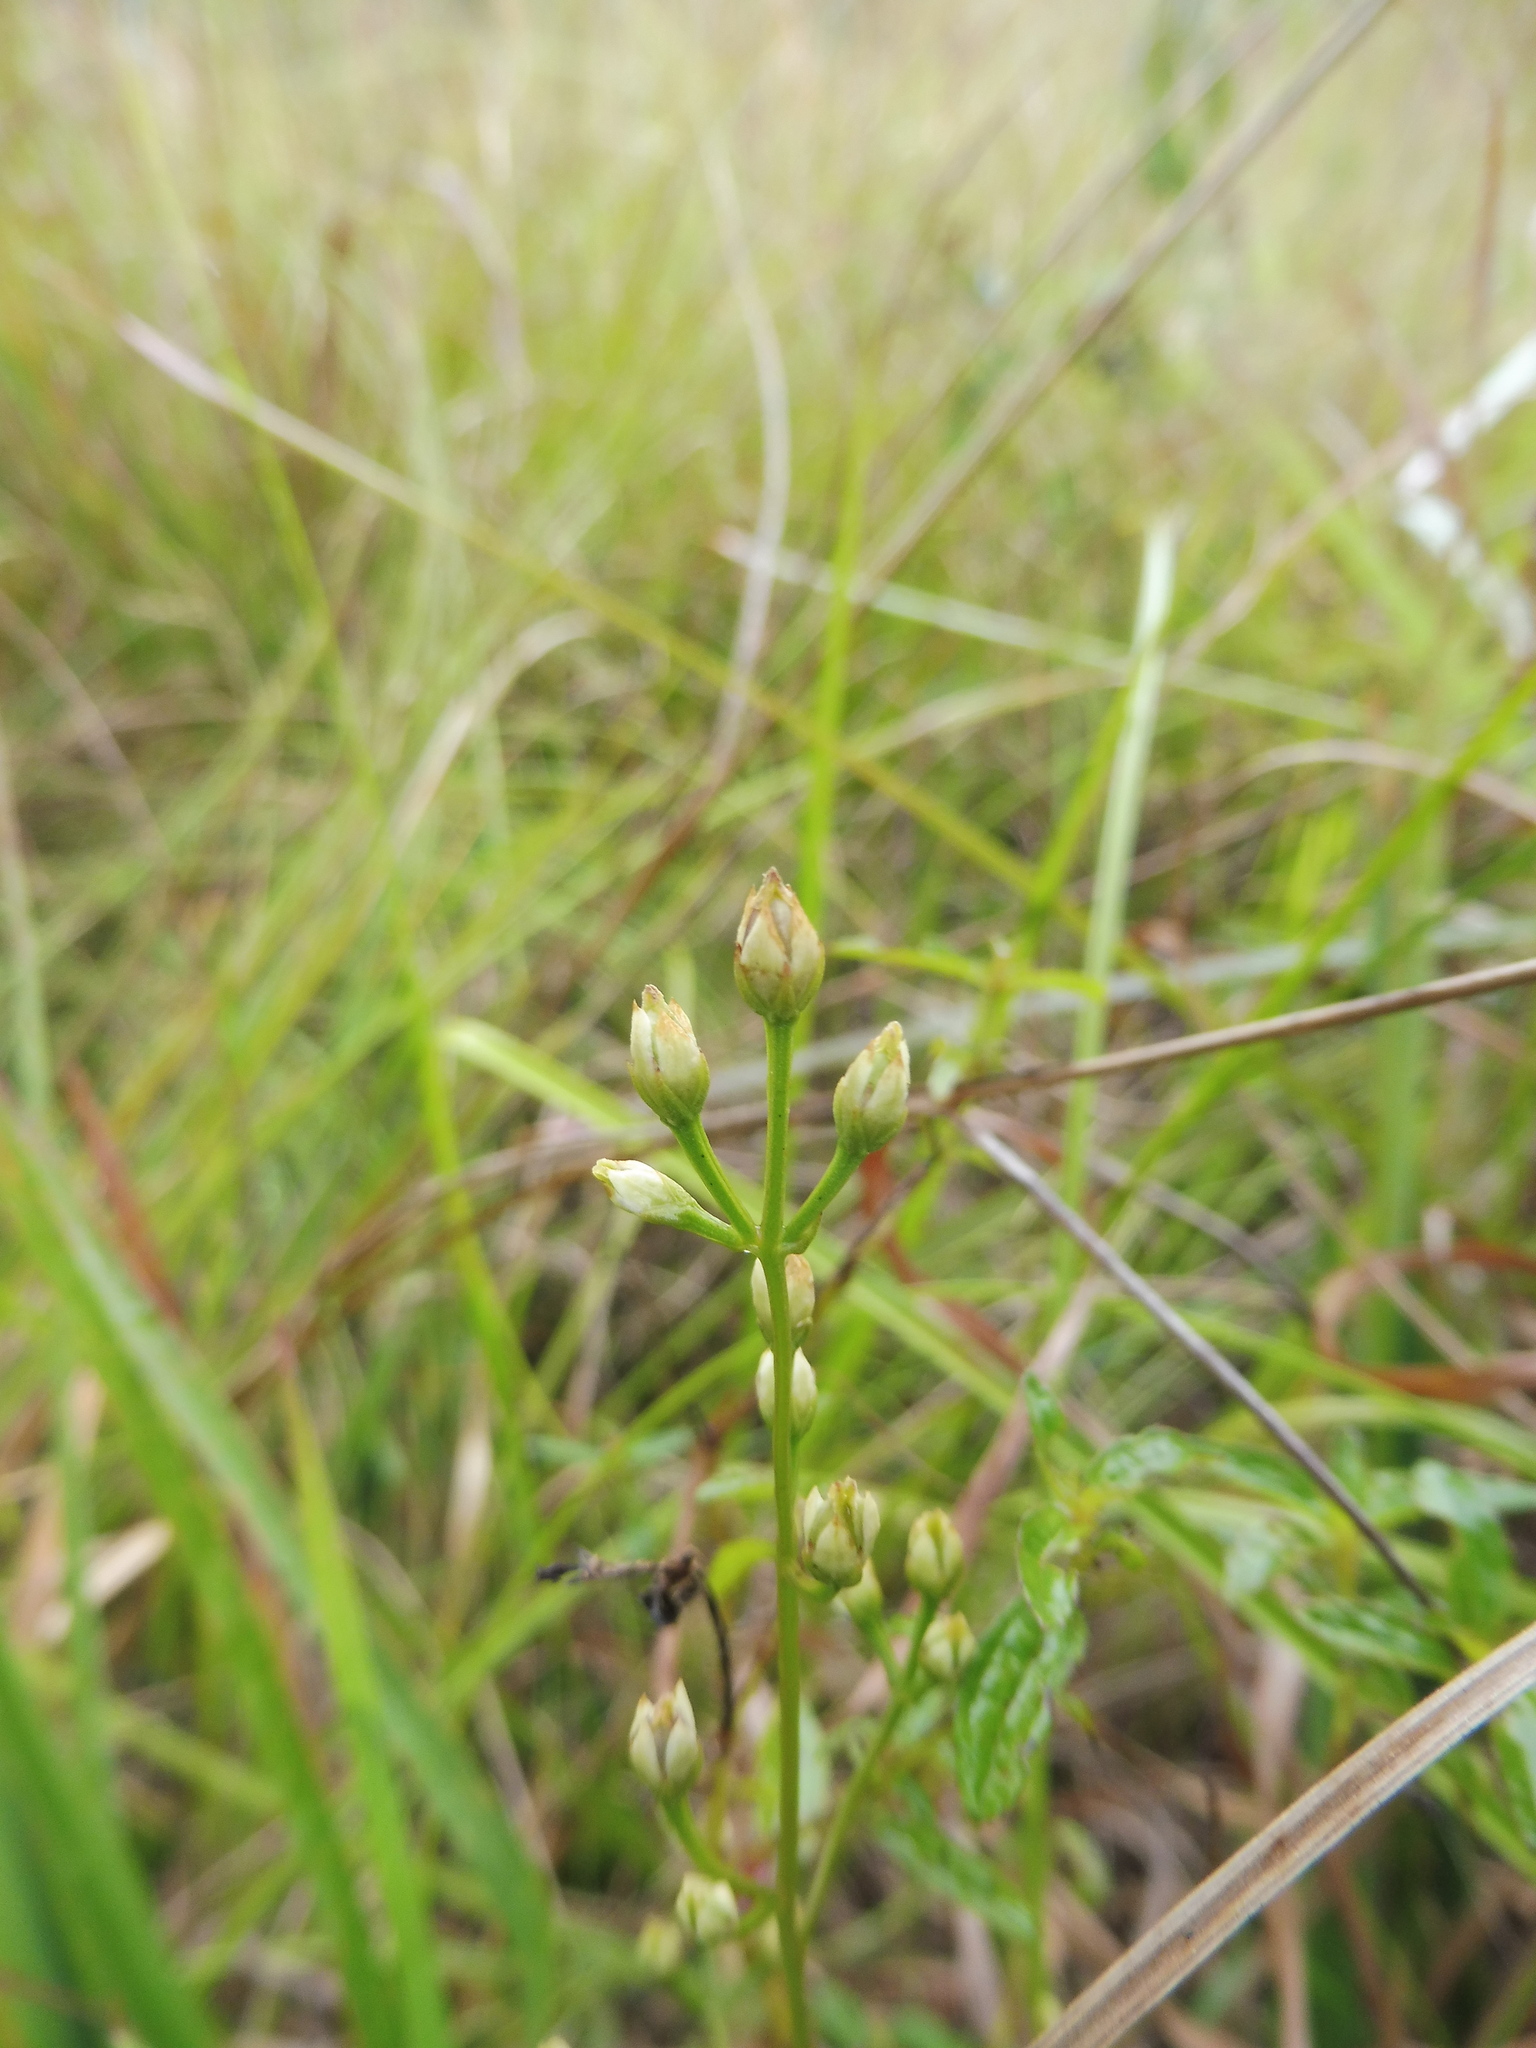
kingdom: Plantae
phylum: Tracheophyta
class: Magnoliopsida
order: Gentianales
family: Gentianaceae
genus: Bartonia
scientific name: Bartonia paniculata
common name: Branched bartonia
